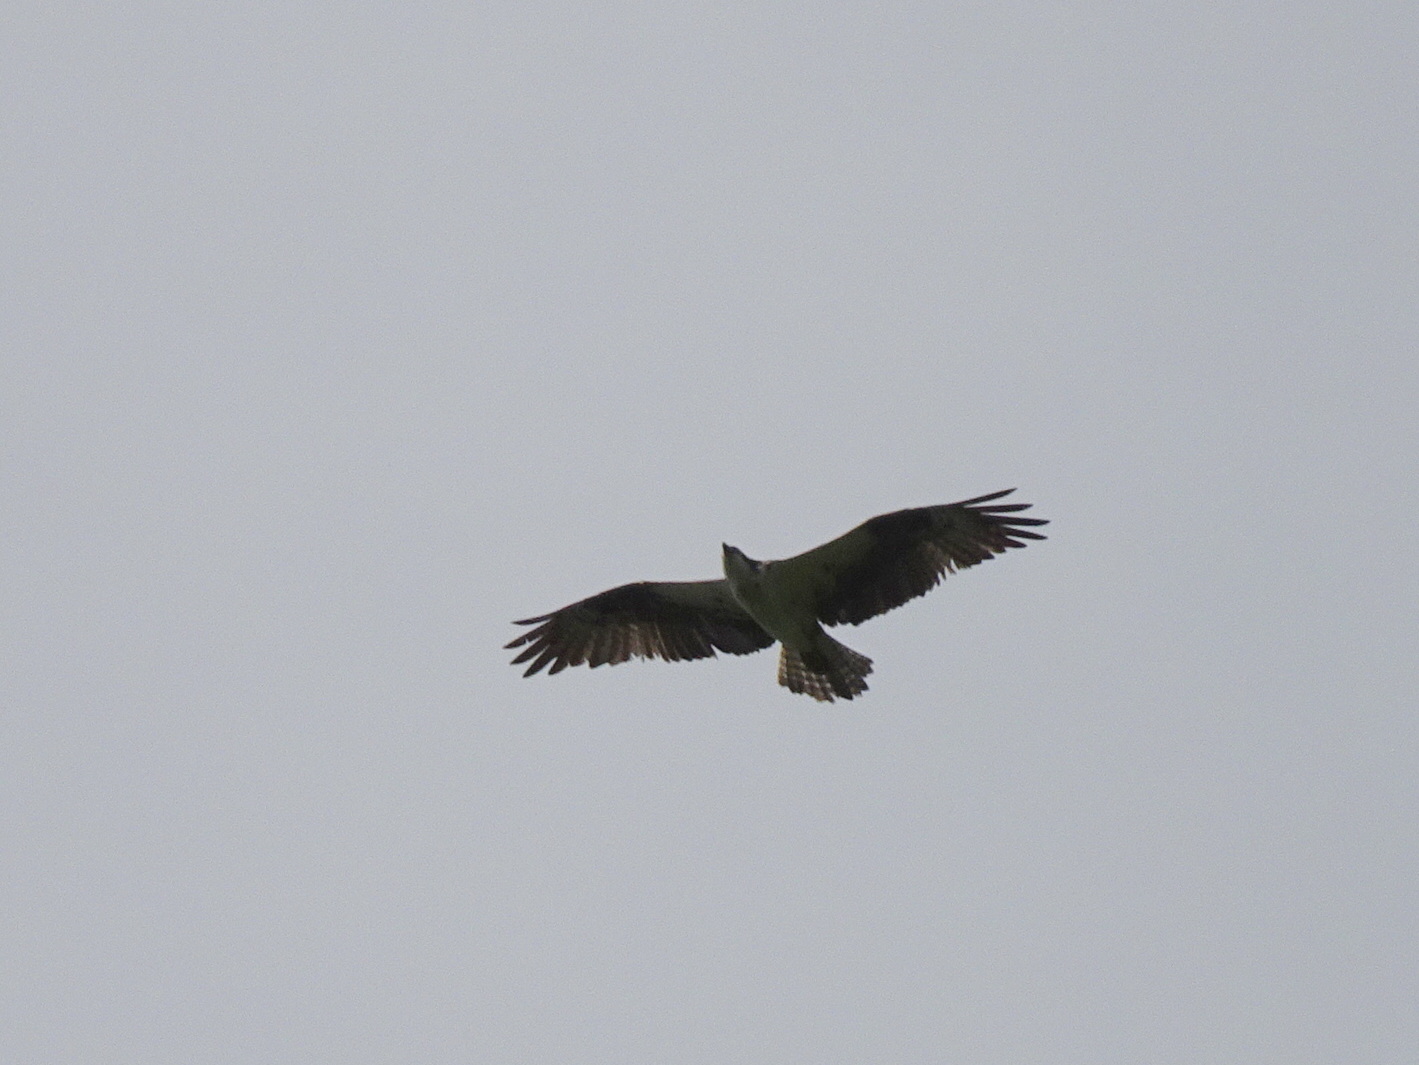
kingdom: Animalia
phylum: Chordata
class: Aves
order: Accipitriformes
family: Pandionidae
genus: Pandion
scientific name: Pandion haliaetus
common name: Osprey
